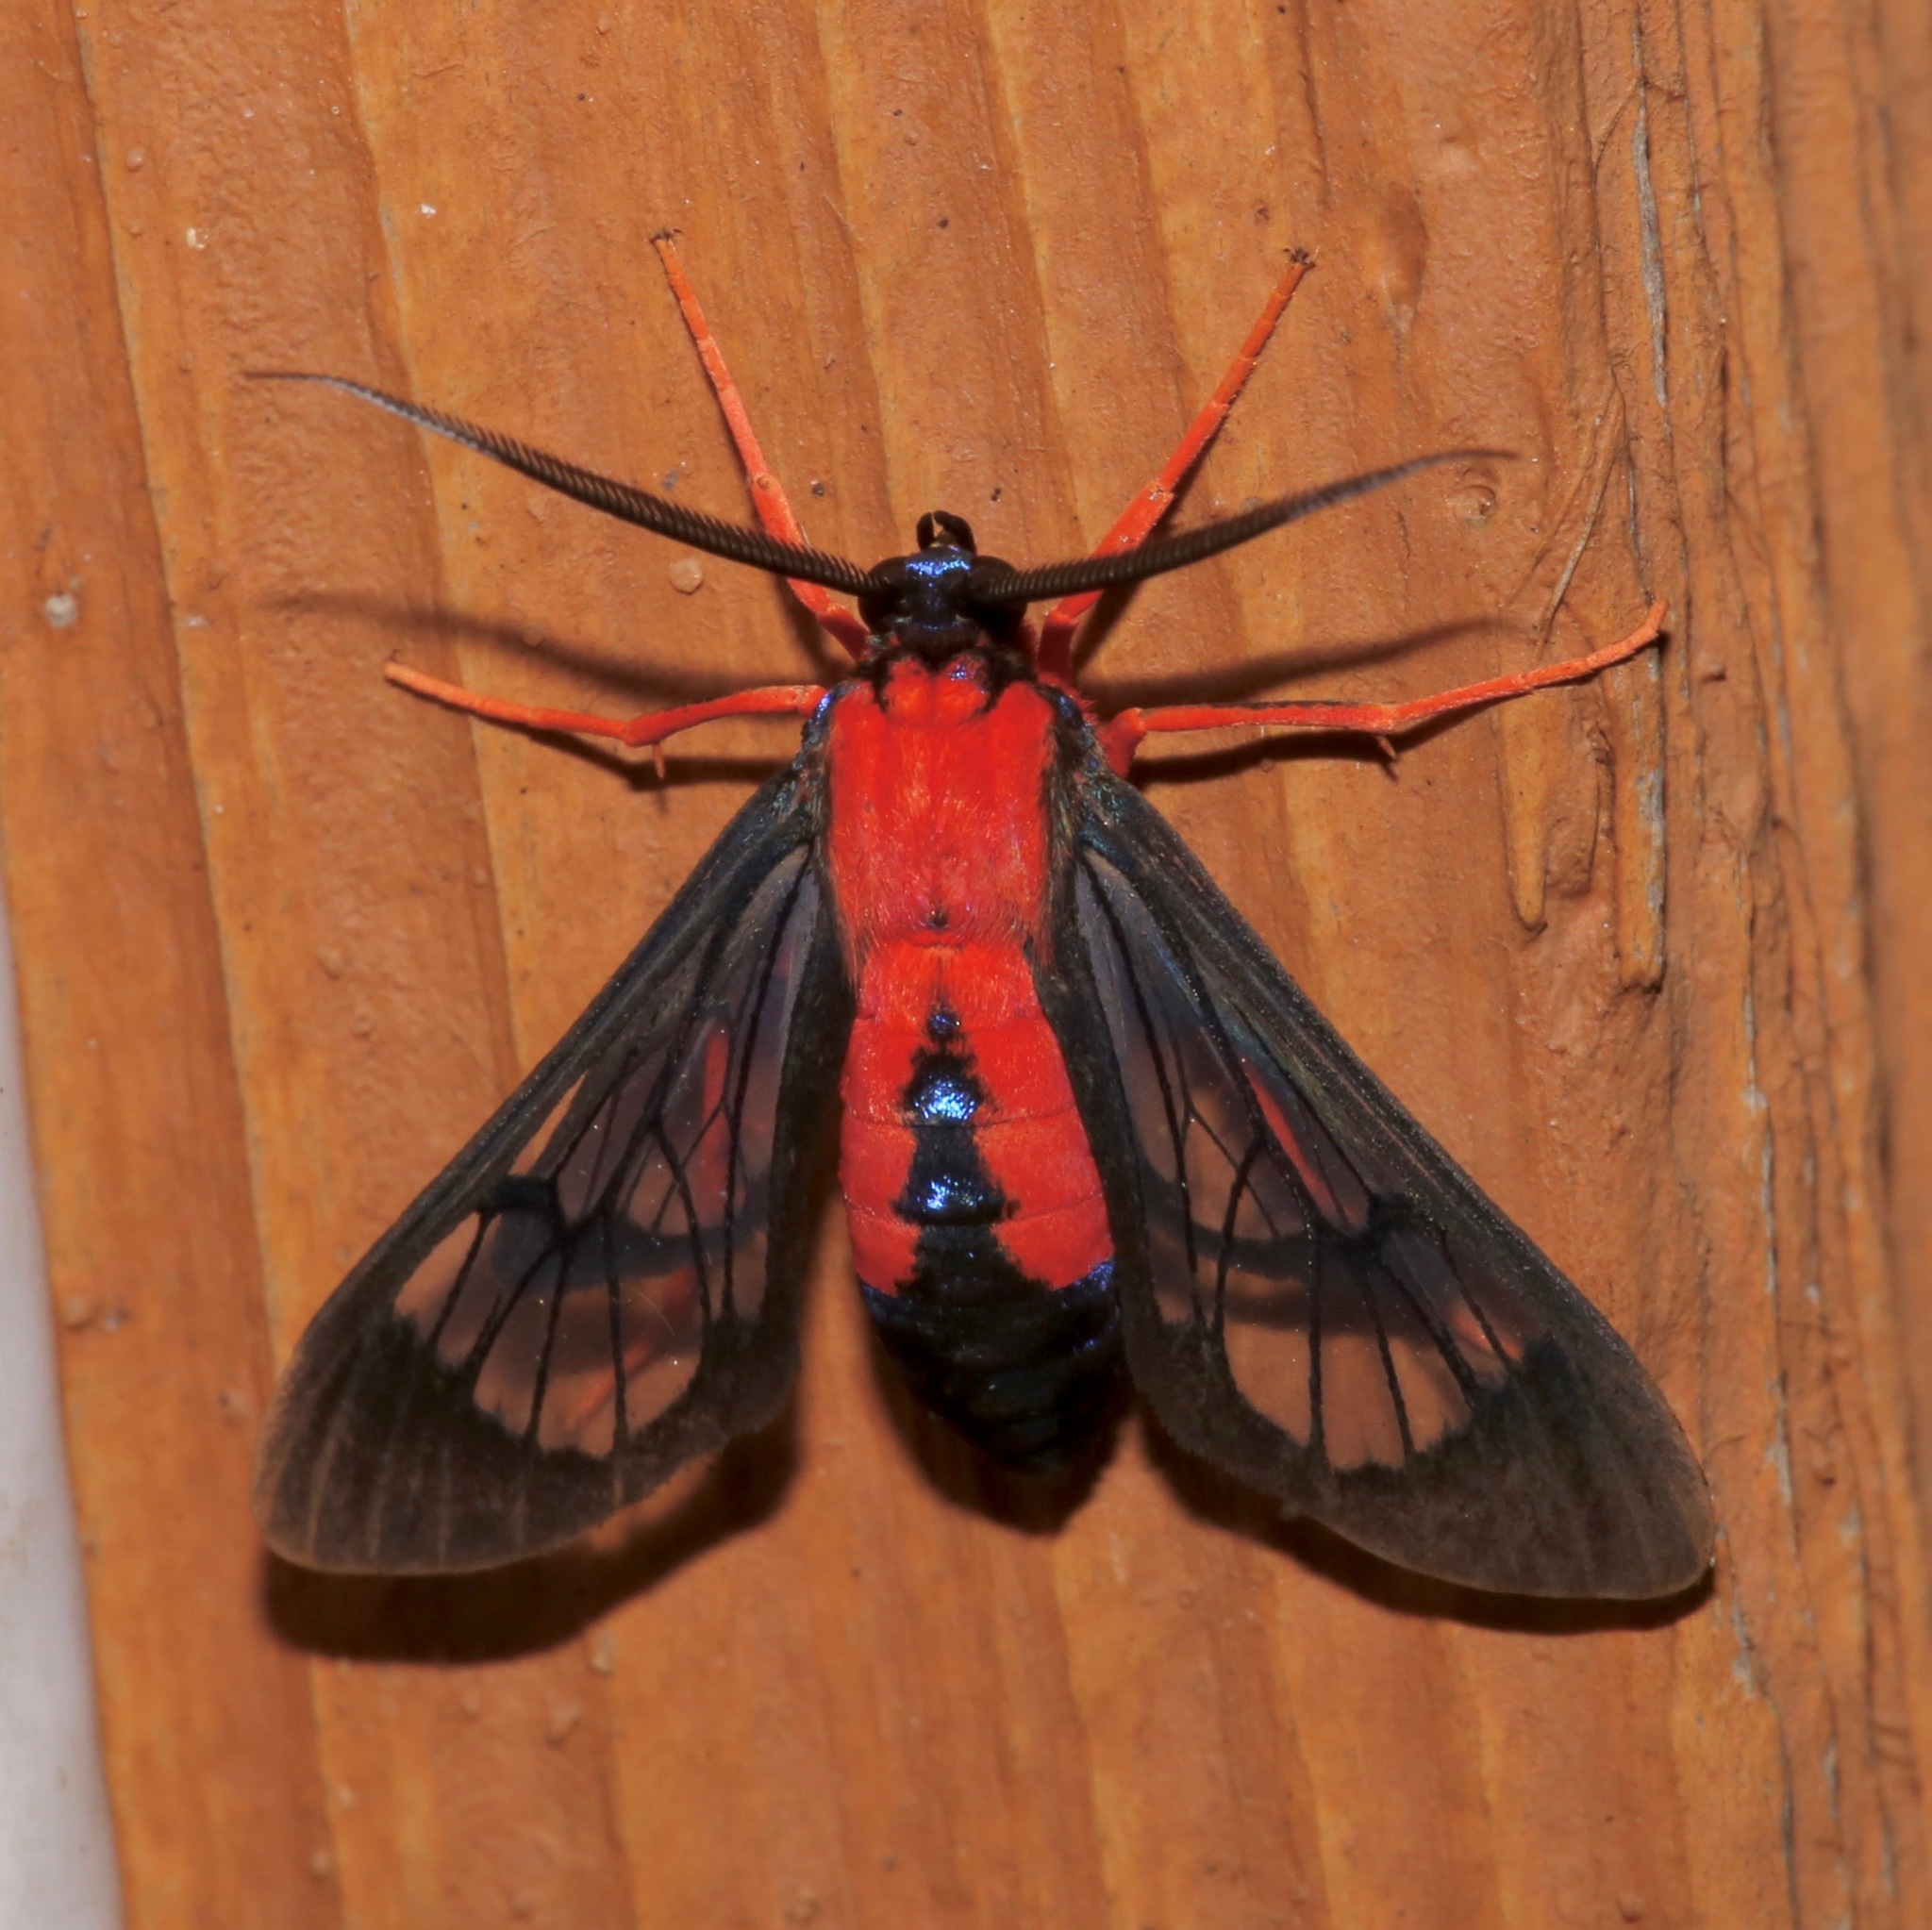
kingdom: Animalia
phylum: Arthropoda
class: Insecta
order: Lepidoptera
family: Erebidae
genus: Cosmosoma
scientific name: Cosmosoma myrodora
